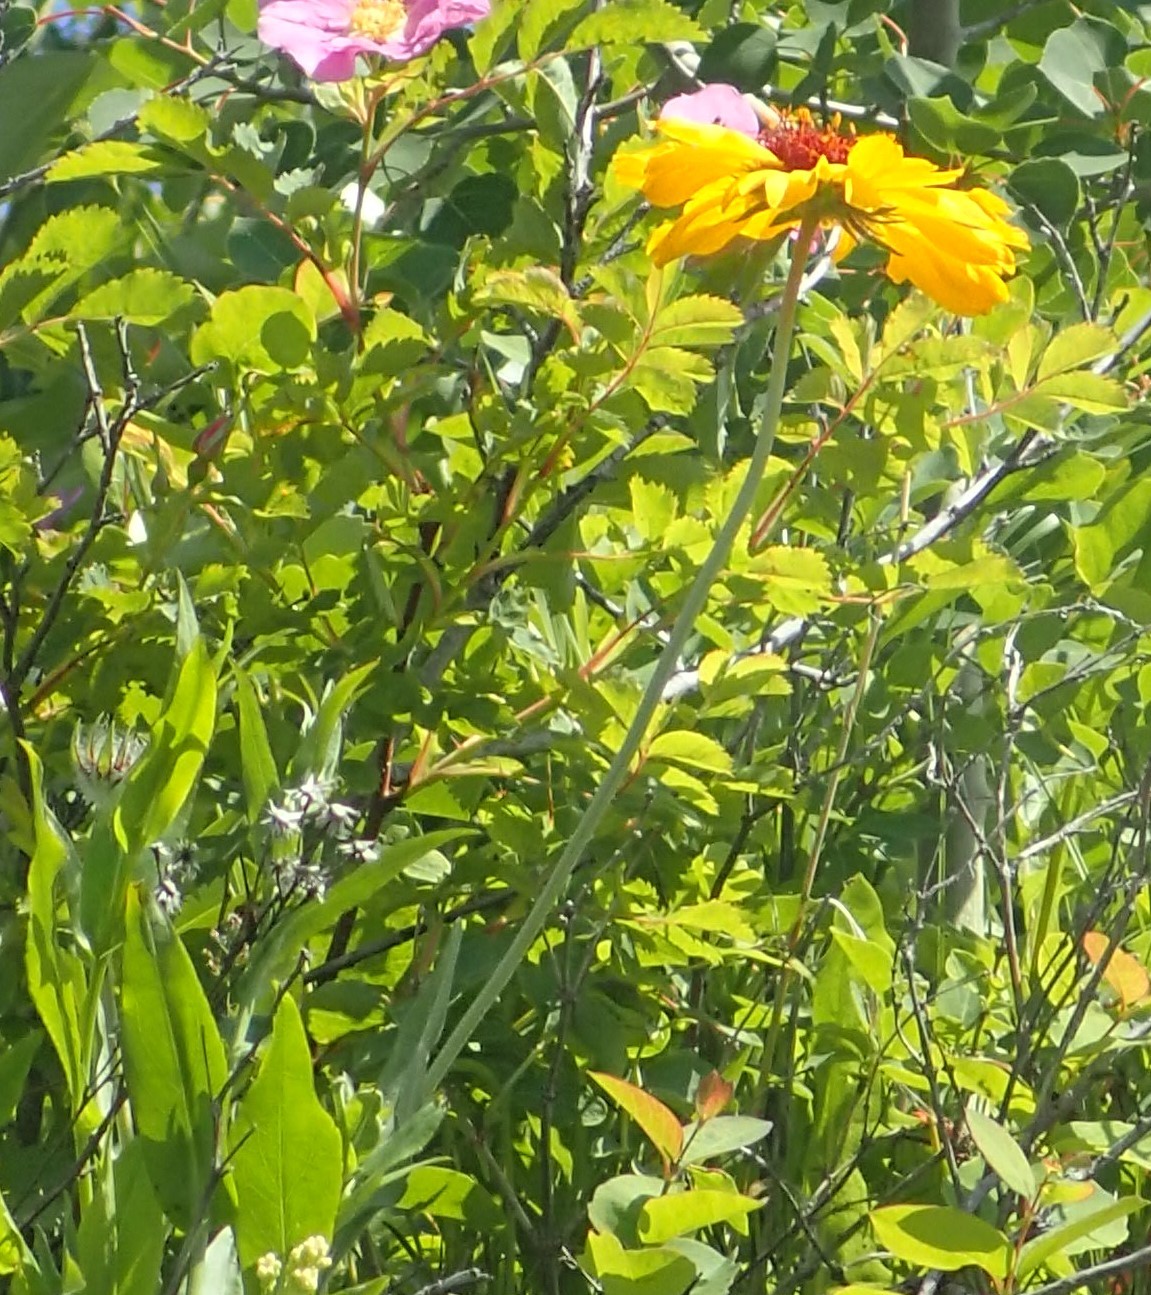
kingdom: Plantae
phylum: Tracheophyta
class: Magnoliopsida
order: Asterales
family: Asteraceae
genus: Gaillardia
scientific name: Gaillardia aristata
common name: Blanket-flower
